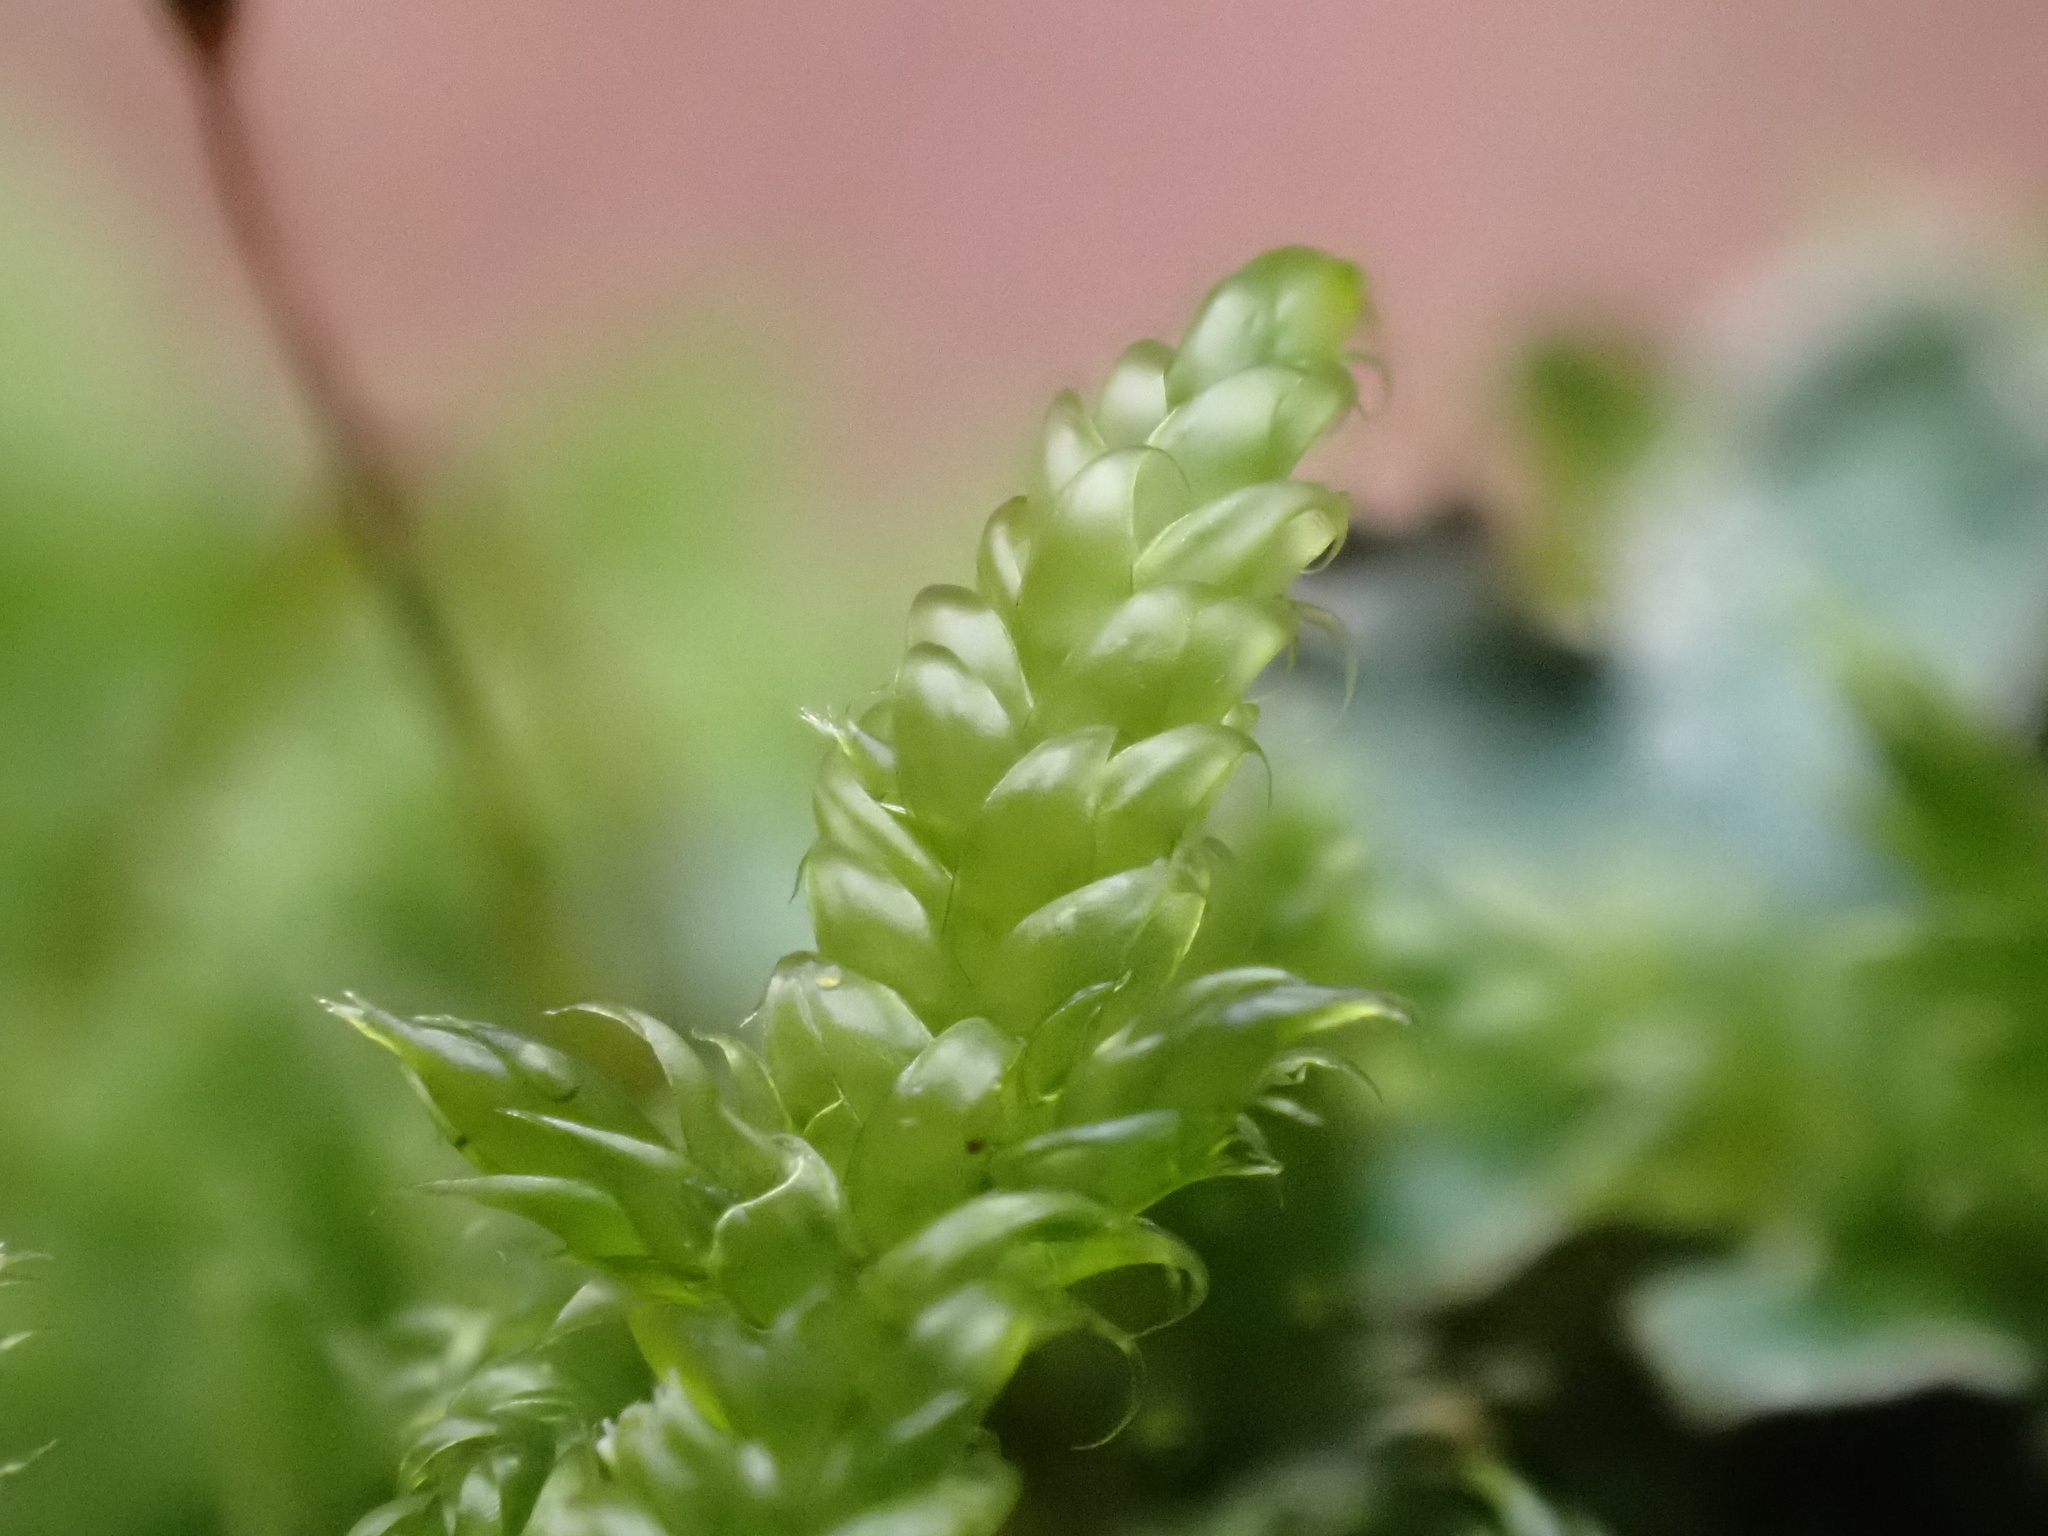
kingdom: Plantae
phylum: Bryophyta
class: Bryopsida
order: Hypnales
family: Hypnaceae
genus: Hypnum
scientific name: Hypnum cupressiforme
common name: Cypress-leaved plait-moss
